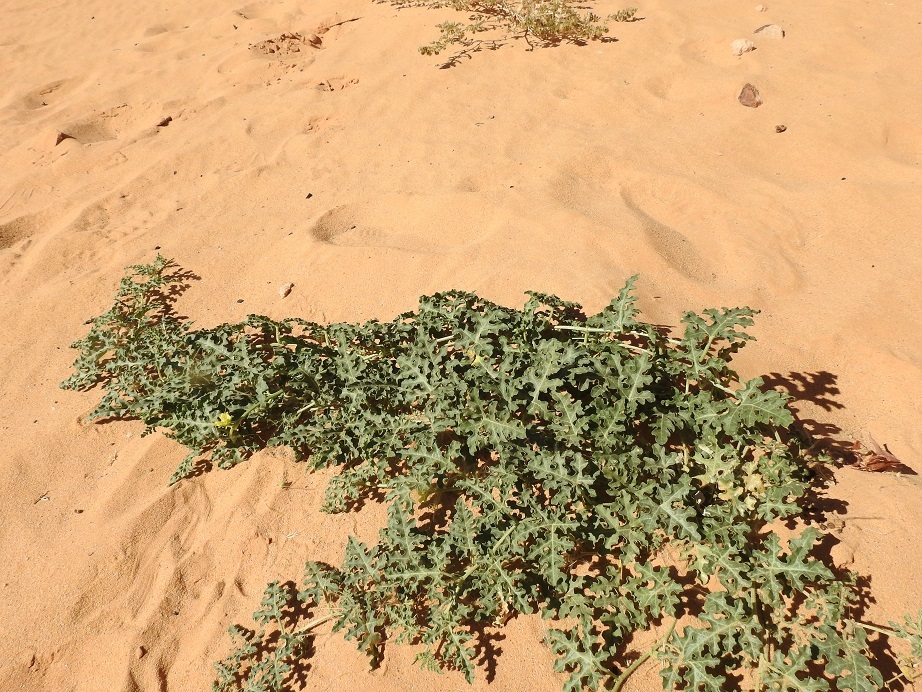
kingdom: Plantae
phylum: Tracheophyta
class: Magnoliopsida
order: Cucurbitales
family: Cucurbitaceae
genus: Citrullus
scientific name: Citrullus colocynthis
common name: Colocynth
